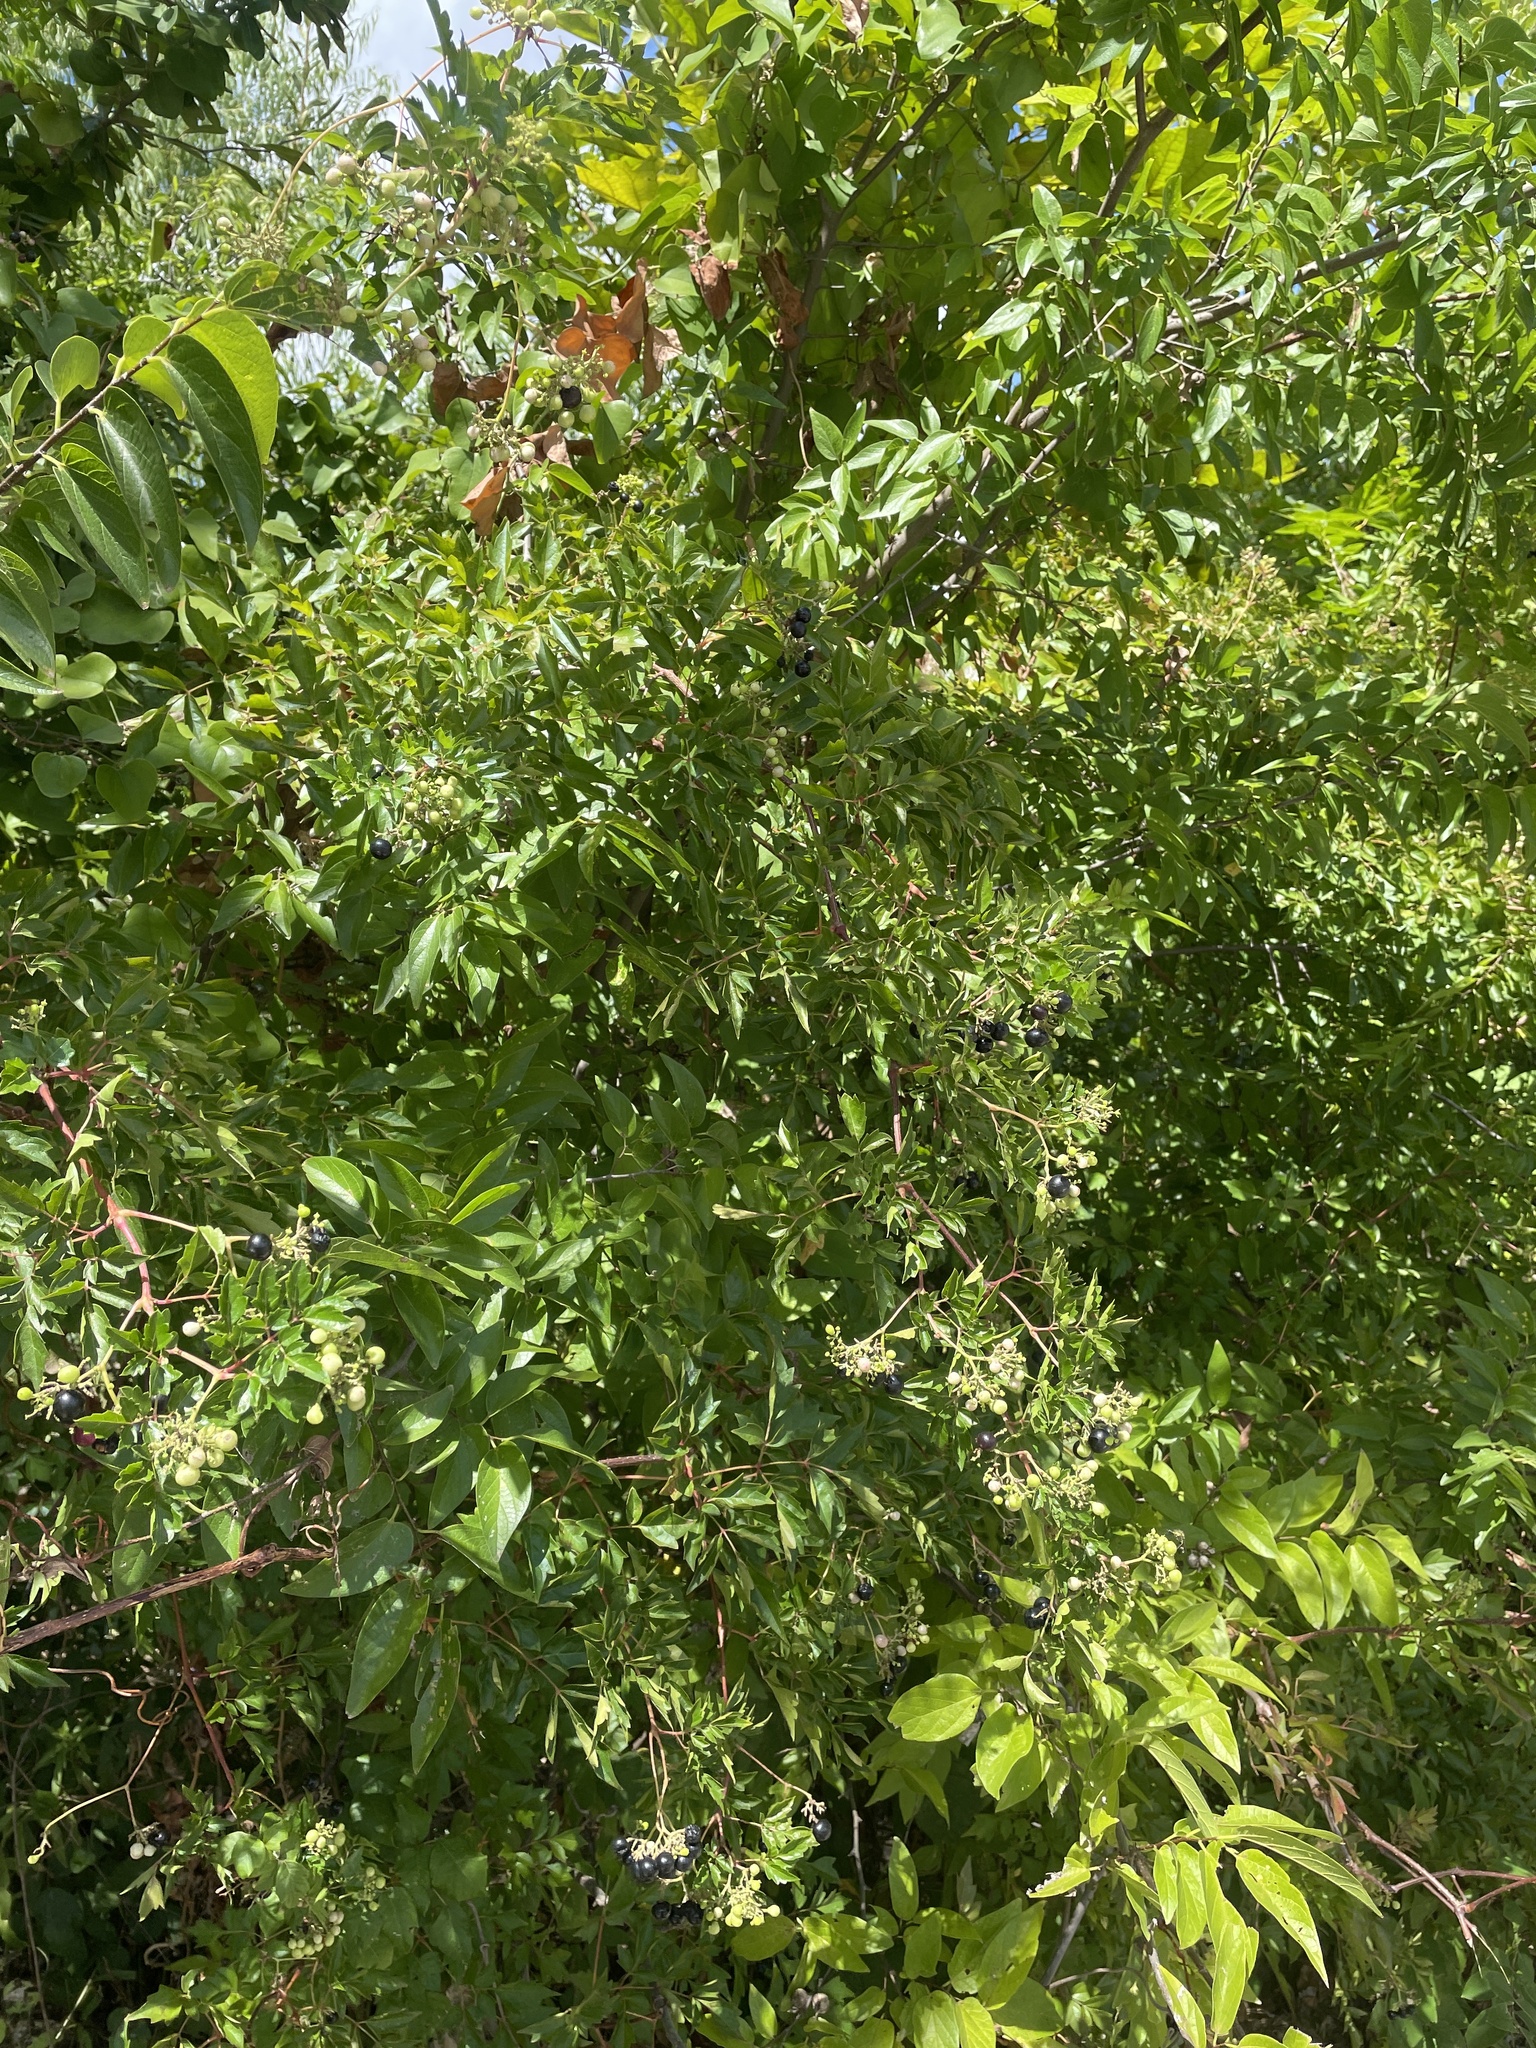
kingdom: Plantae
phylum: Tracheophyta
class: Magnoliopsida
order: Vitales
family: Vitaceae
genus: Nekemias
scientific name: Nekemias arborea
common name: Peppervine
